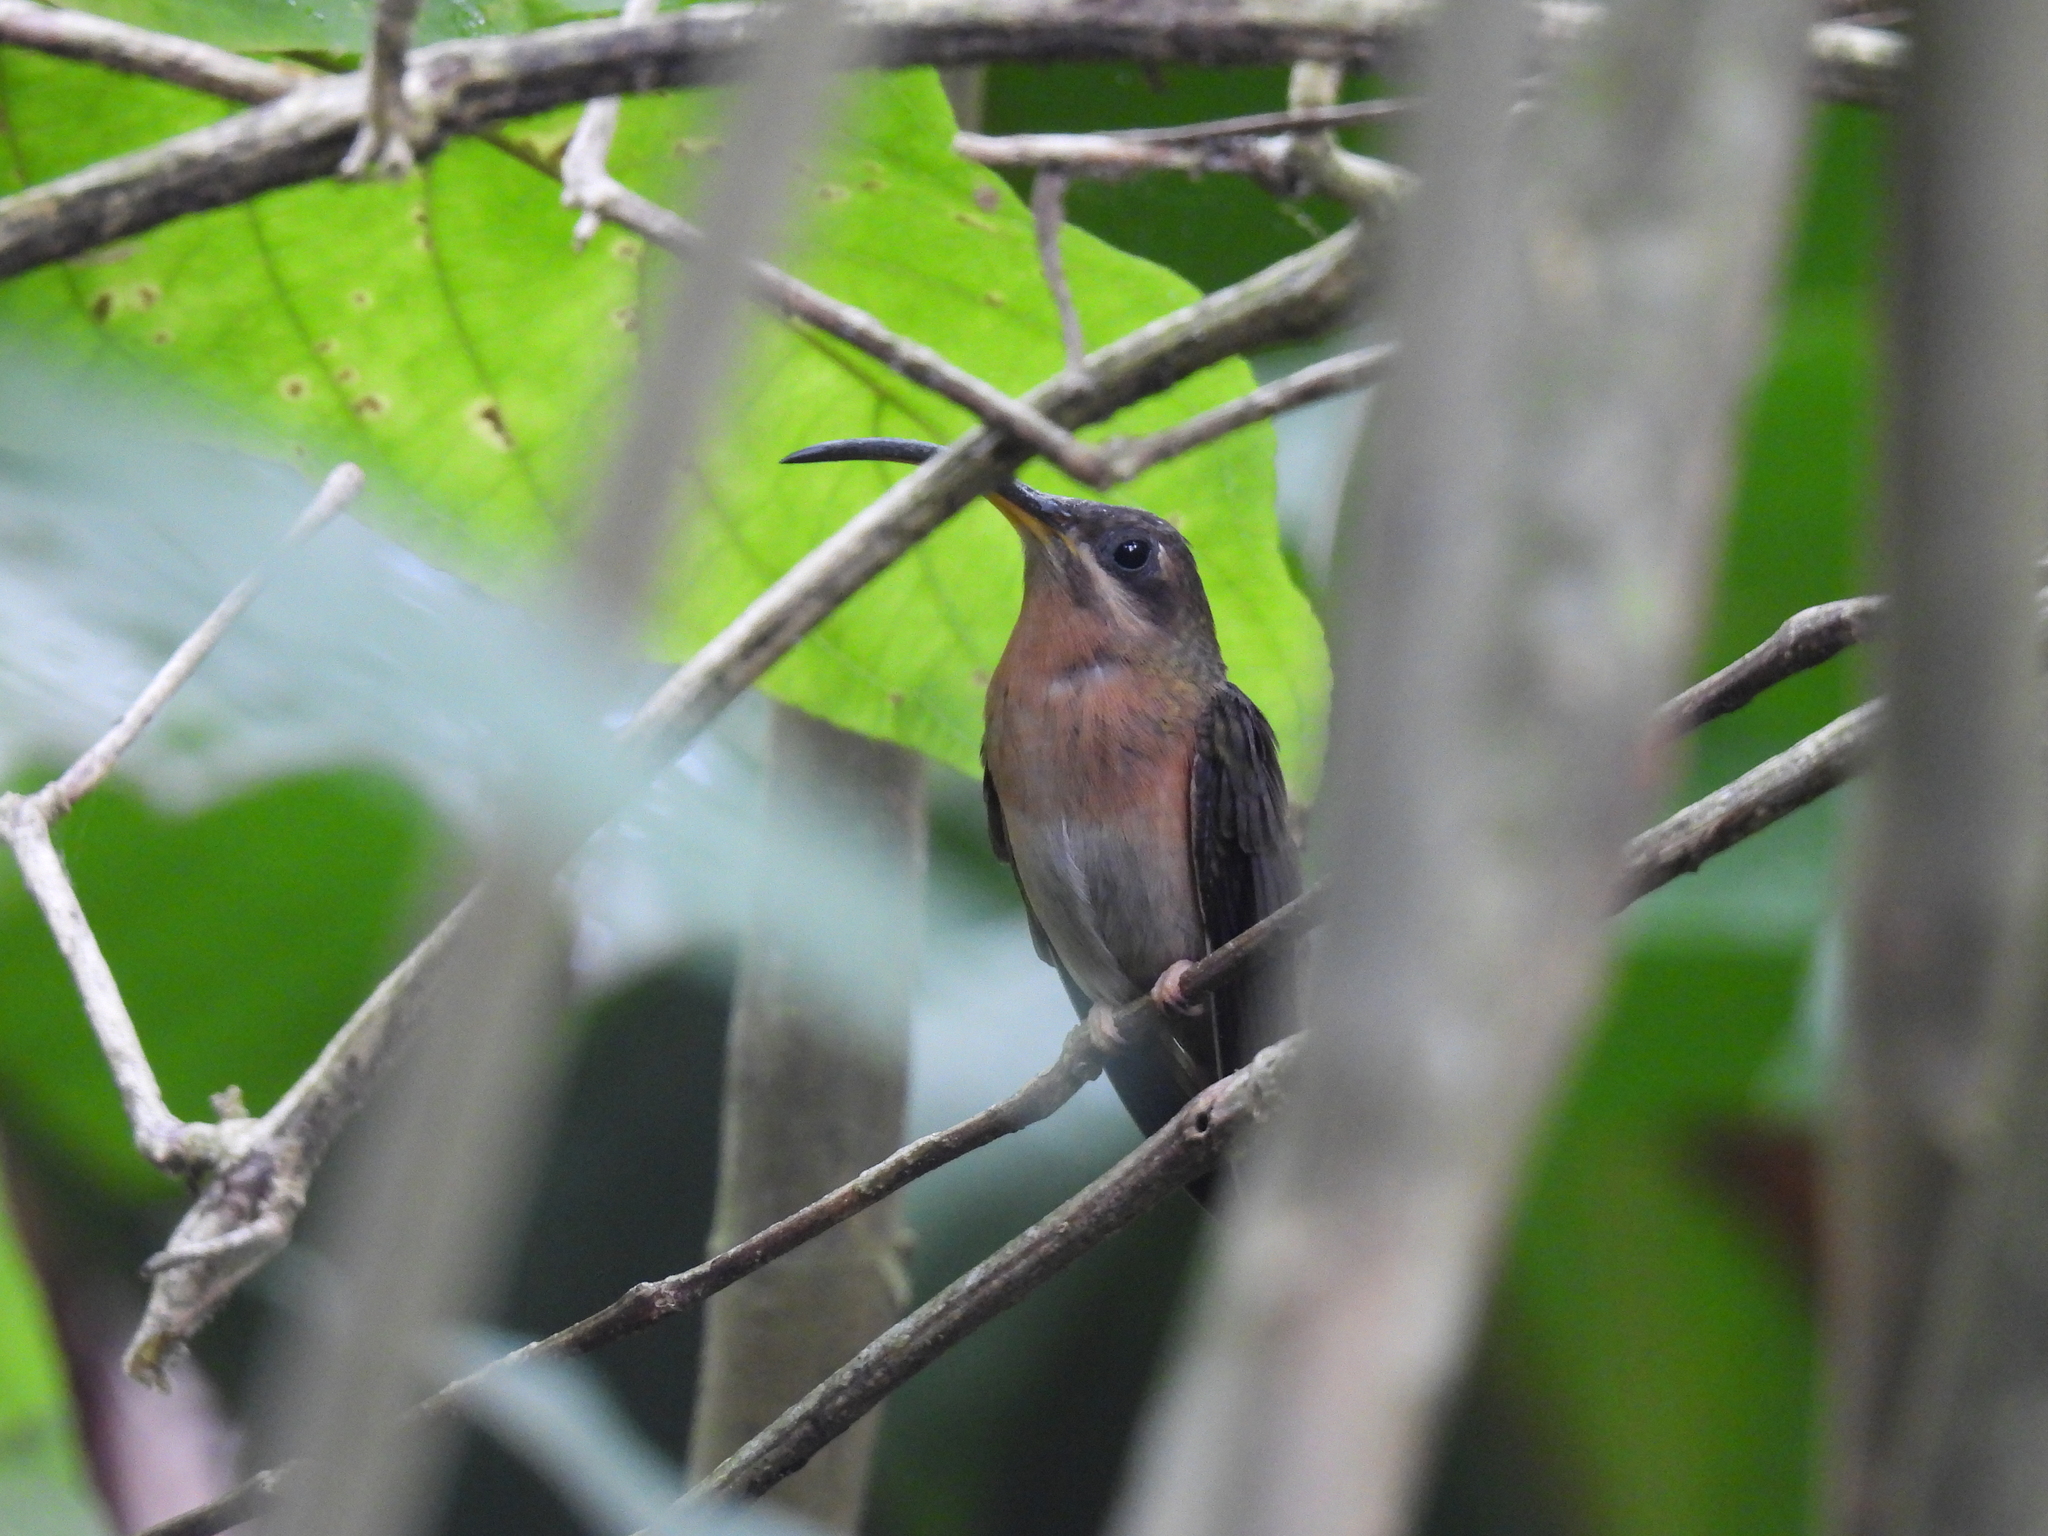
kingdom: Animalia
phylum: Chordata
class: Aves
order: Apodiformes
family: Trochilidae
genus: Glaucis
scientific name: Glaucis hirsutus
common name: Rufous-breasted hermit
